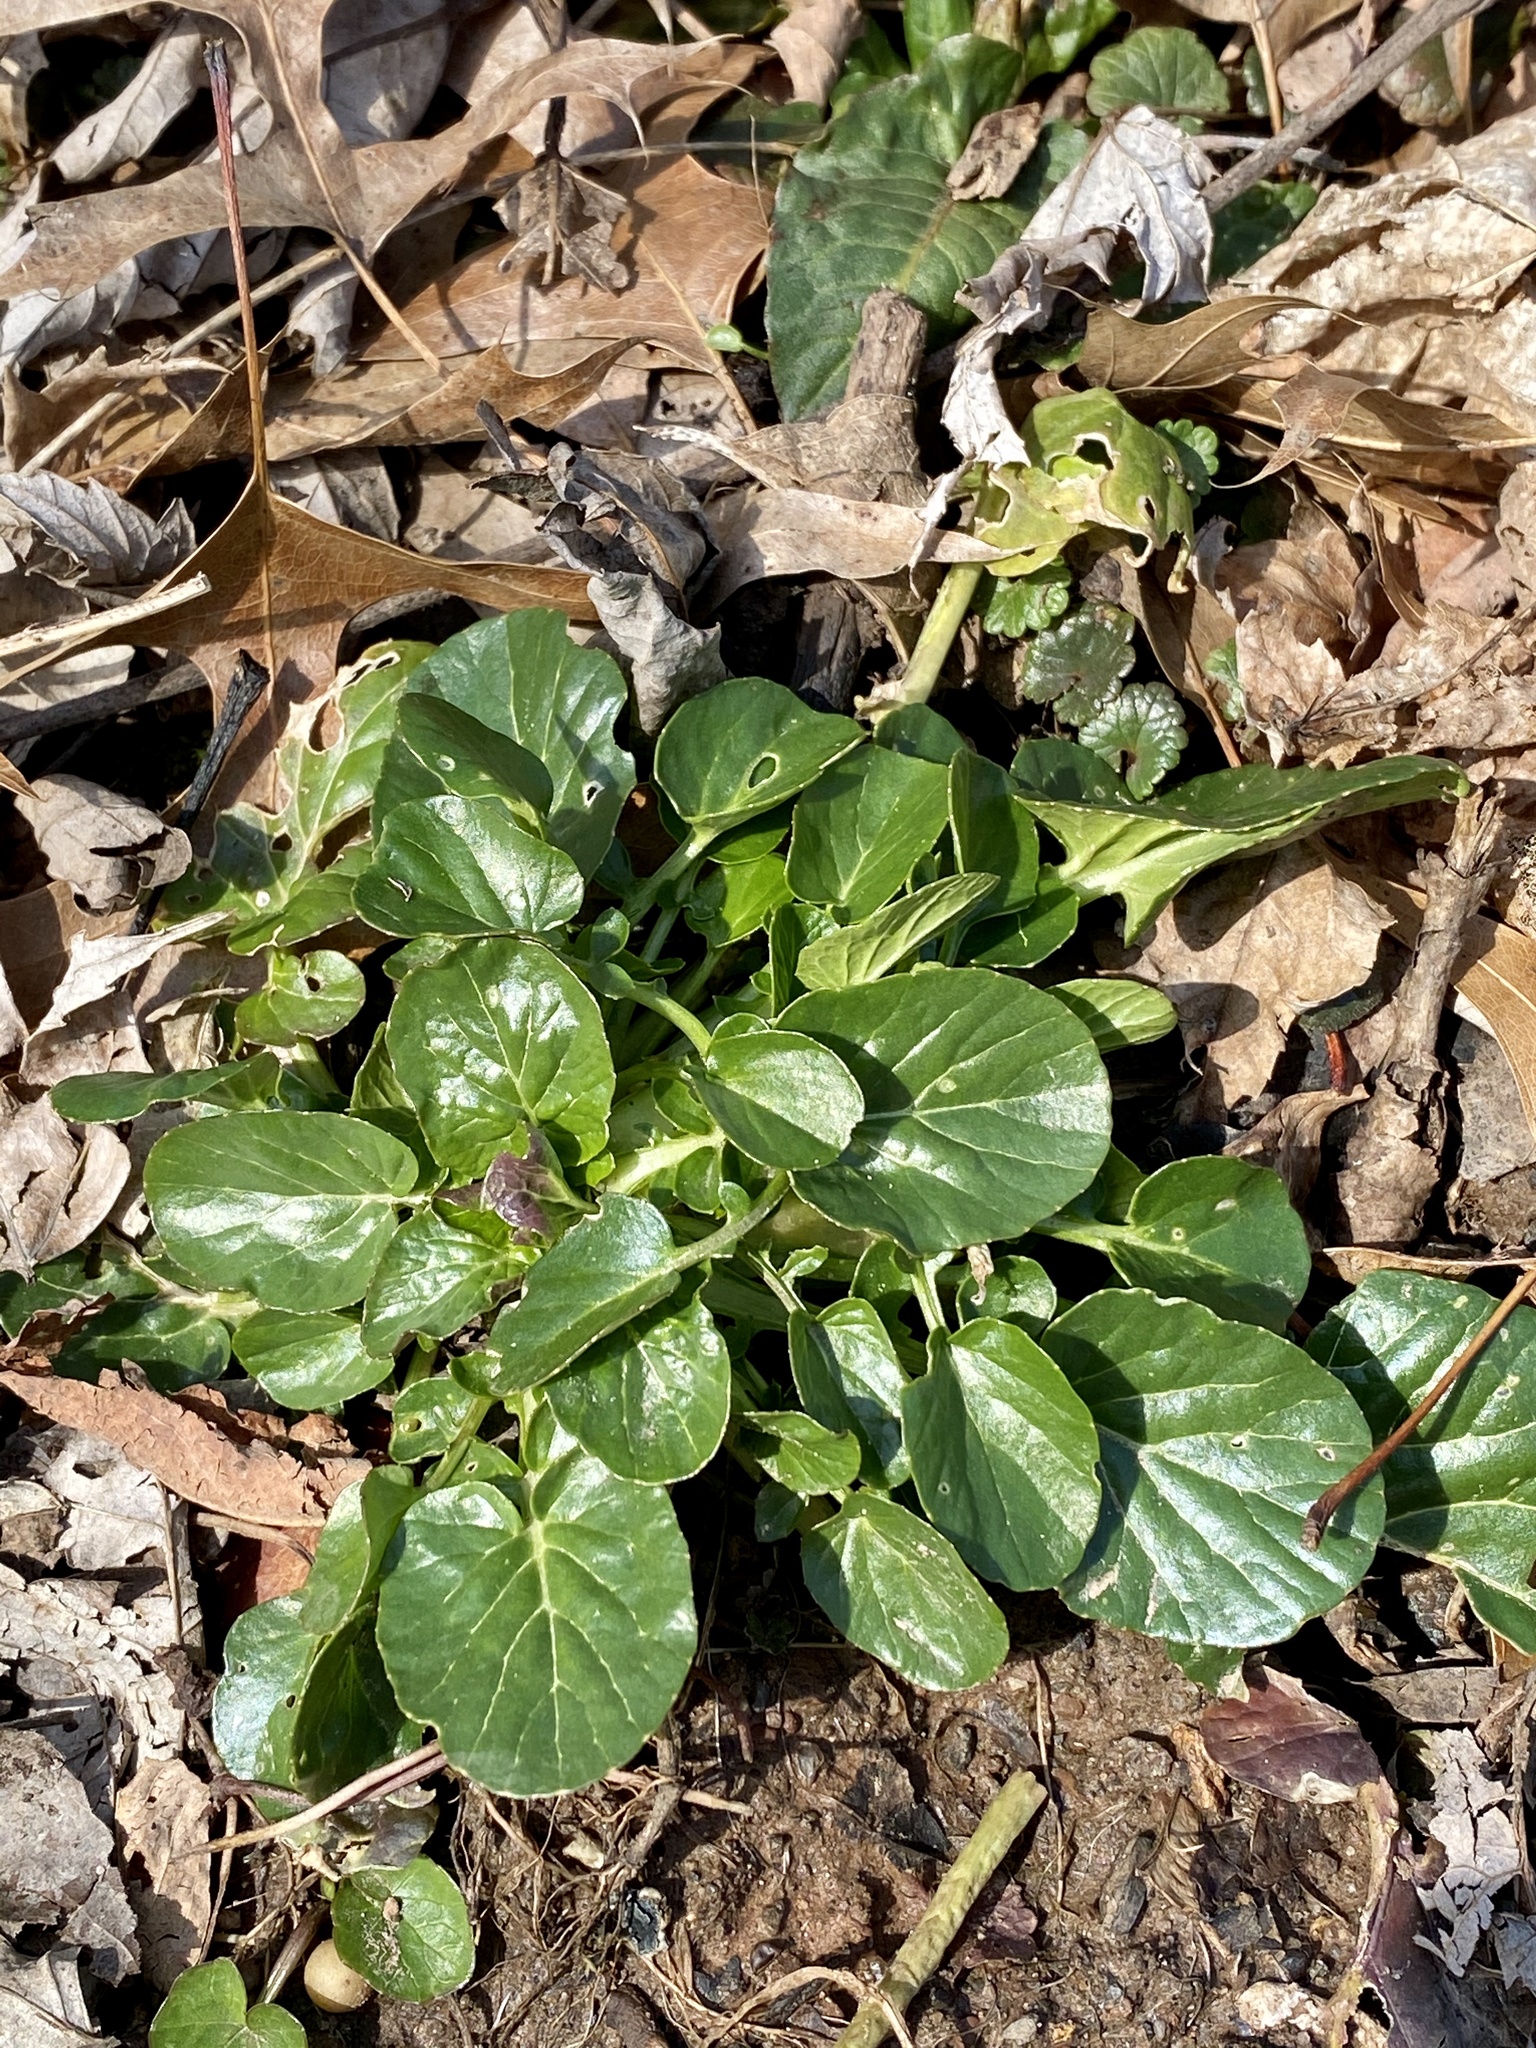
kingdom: Plantae
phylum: Tracheophyta
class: Magnoliopsida
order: Brassicales
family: Brassicaceae
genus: Barbarea
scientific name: Barbarea vulgaris
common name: Cressy-greens
